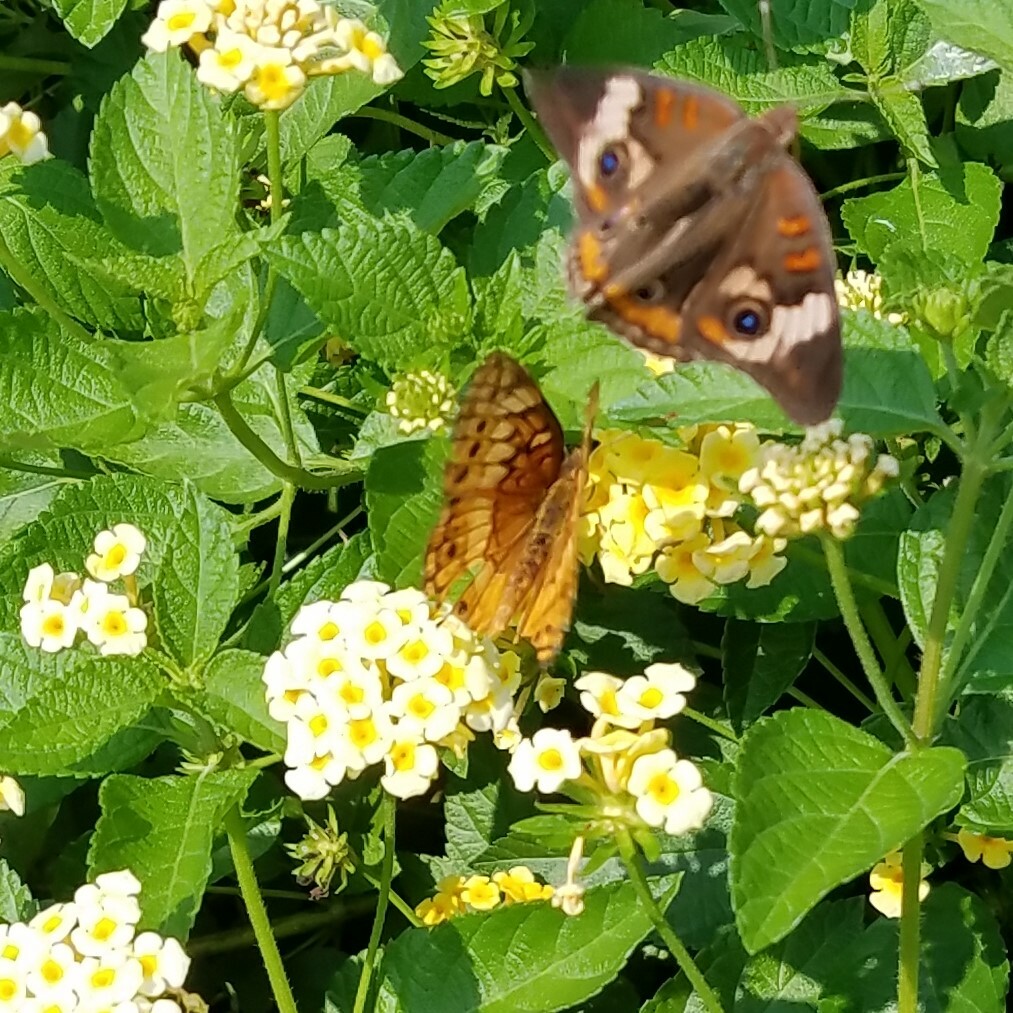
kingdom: Animalia
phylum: Arthropoda
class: Insecta
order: Lepidoptera
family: Nymphalidae
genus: Euptoieta
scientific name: Euptoieta claudia
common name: Variegated fritillary
